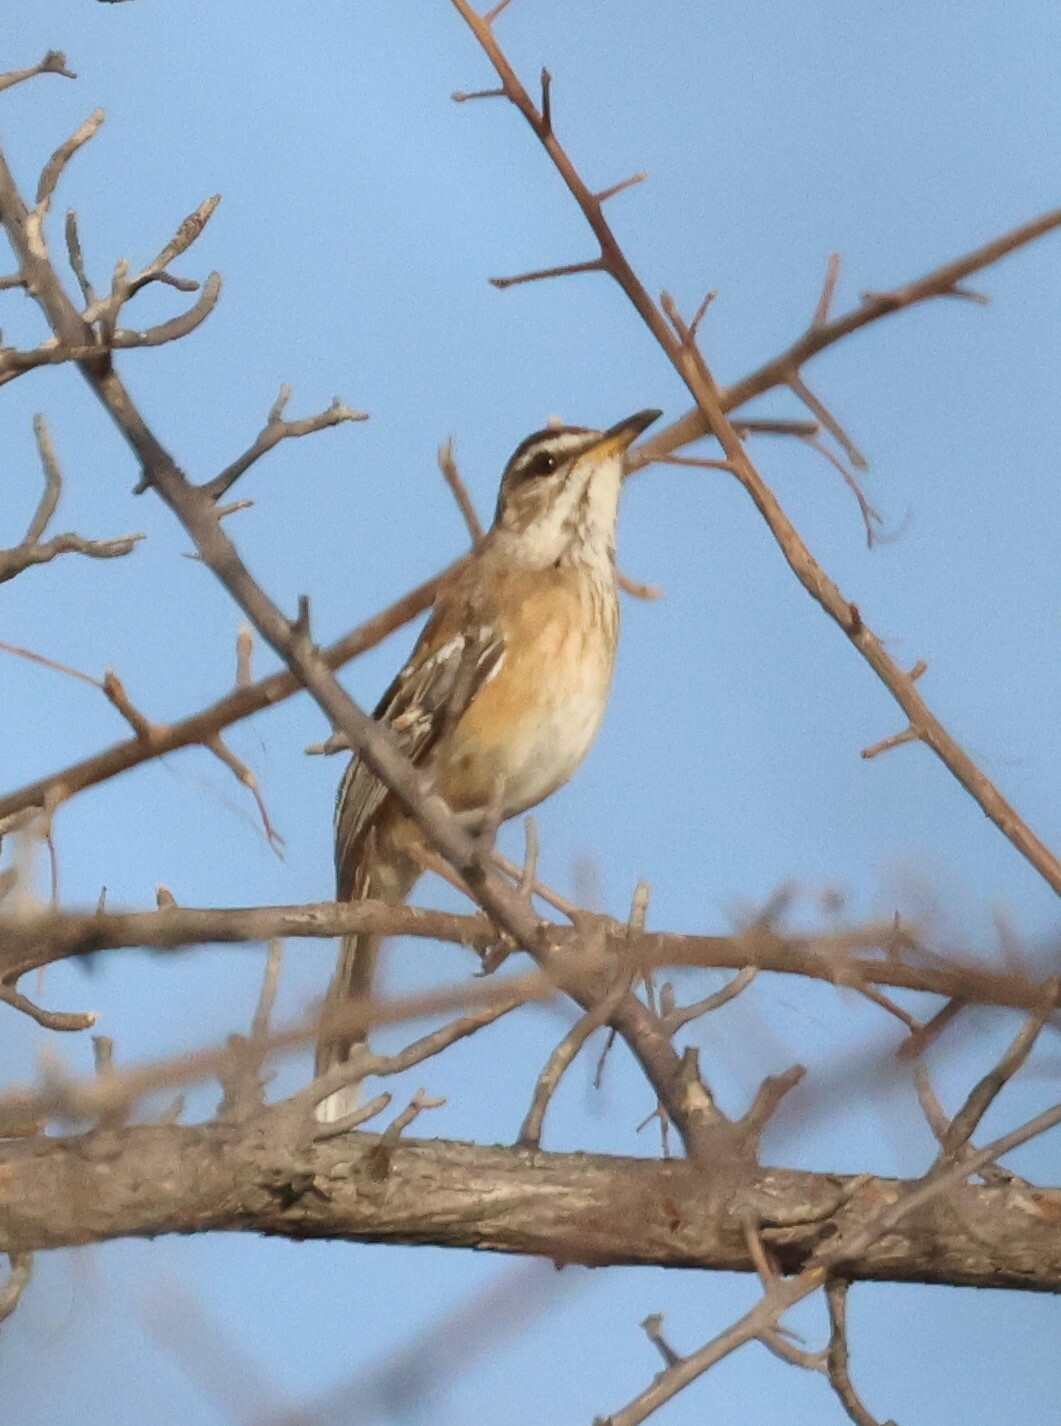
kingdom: Animalia
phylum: Chordata
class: Aves
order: Passeriformes
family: Muscicapidae
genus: Erythropygia
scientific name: Erythropygia leucophrys
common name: White-browed scrub robin
